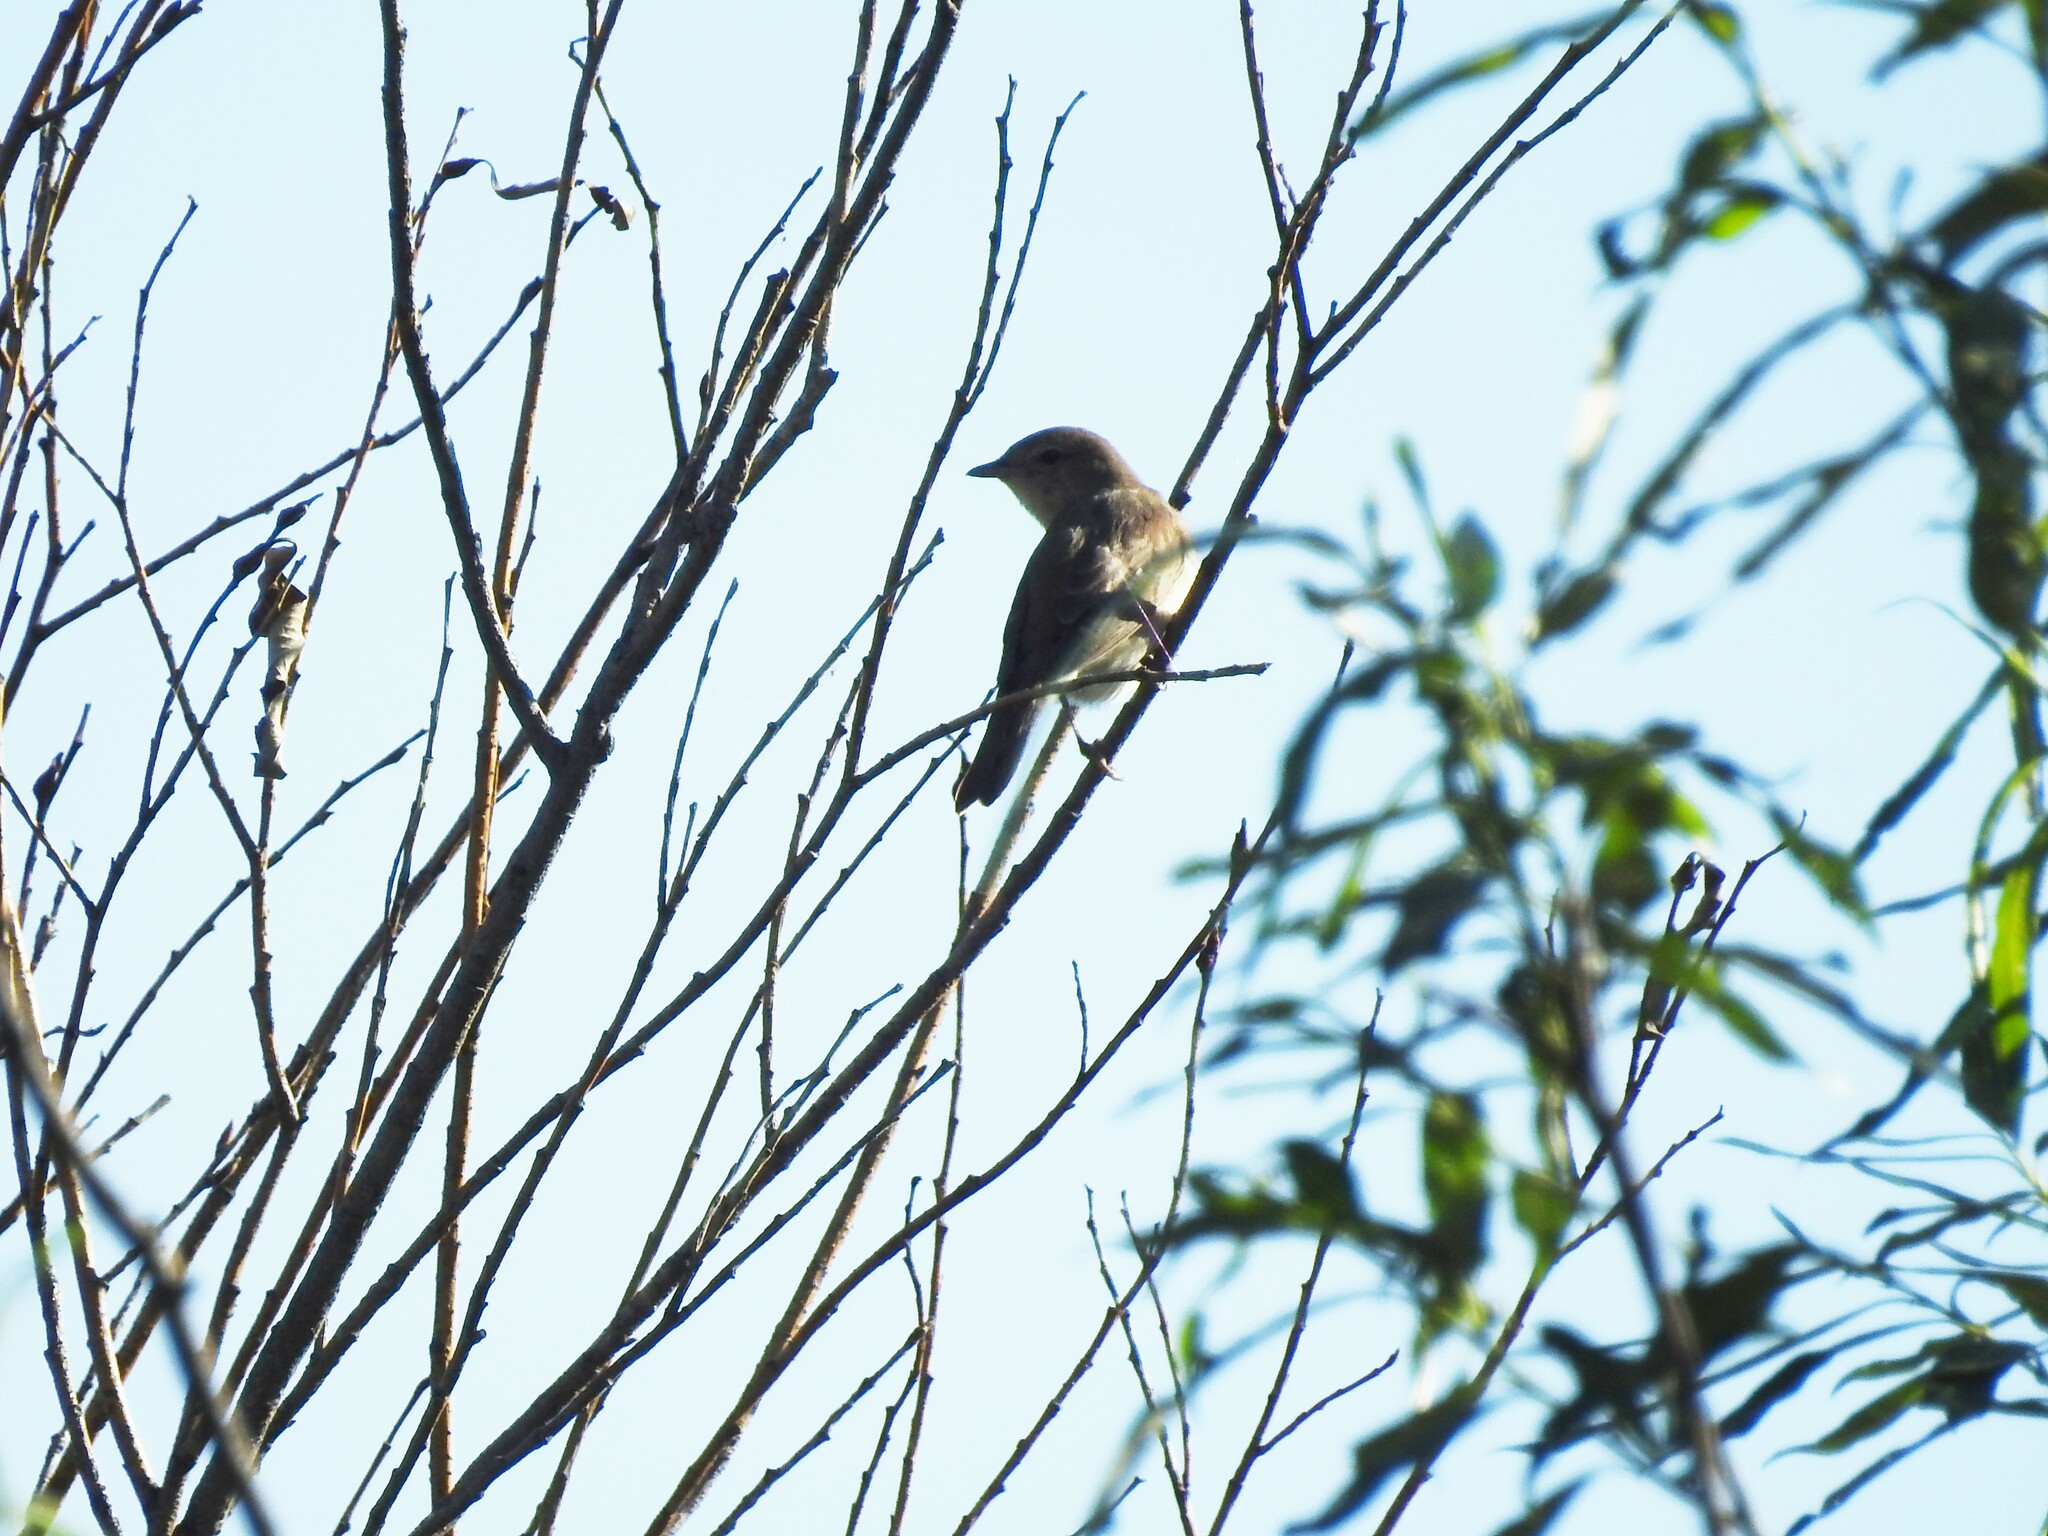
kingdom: Animalia
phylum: Chordata
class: Aves
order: Passeriformes
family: Sylviidae
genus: Sylvia
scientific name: Sylvia borin
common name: Garden warbler
